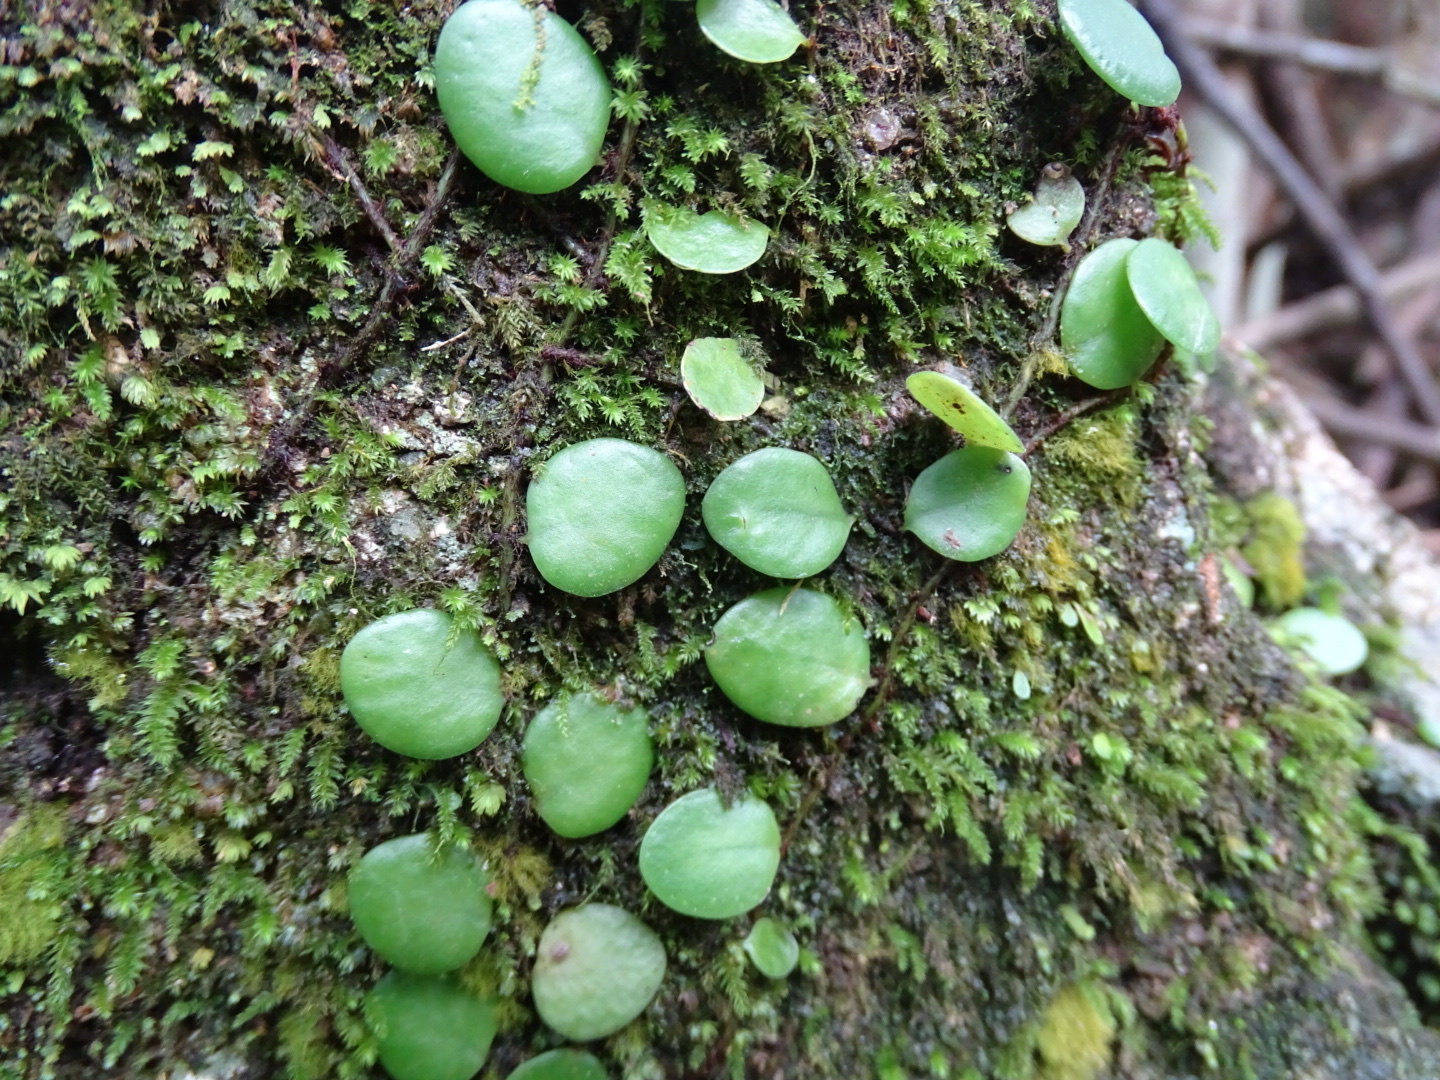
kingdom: Plantae
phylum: Tracheophyta
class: Polypodiopsida
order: Polypodiales
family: Polypodiaceae
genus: Lepisorus
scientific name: Lepisorus microphyllus
